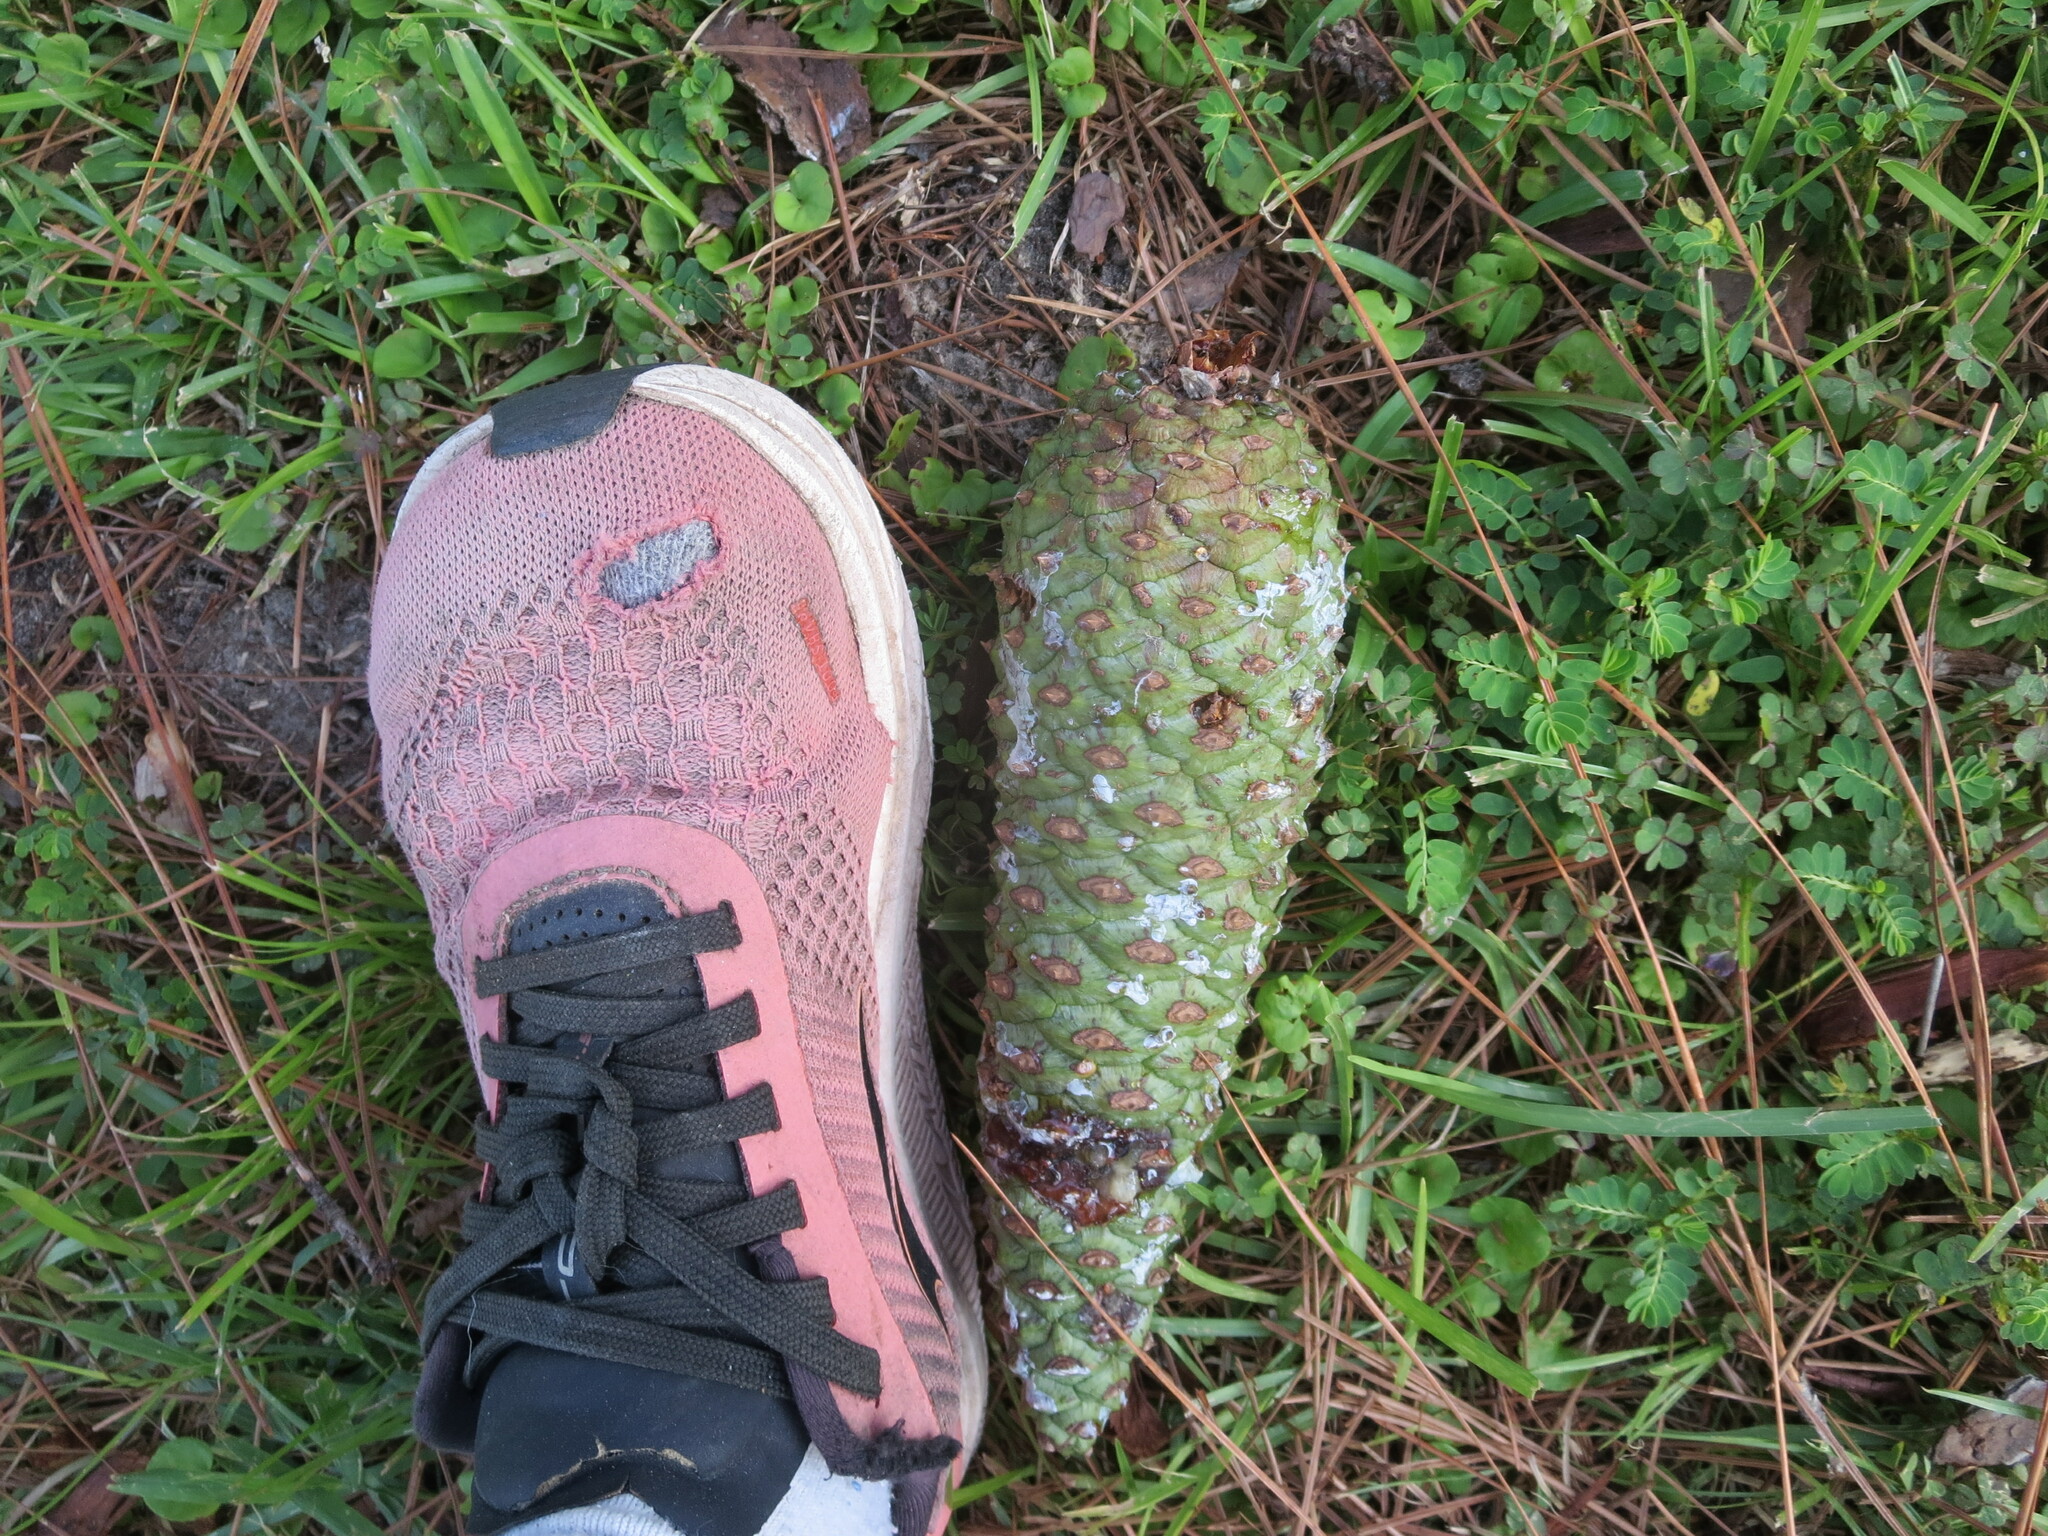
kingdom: Plantae
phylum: Tracheophyta
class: Pinopsida
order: Pinales
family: Pinaceae
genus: Pinus
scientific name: Pinus palustris
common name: Longleaf pine
